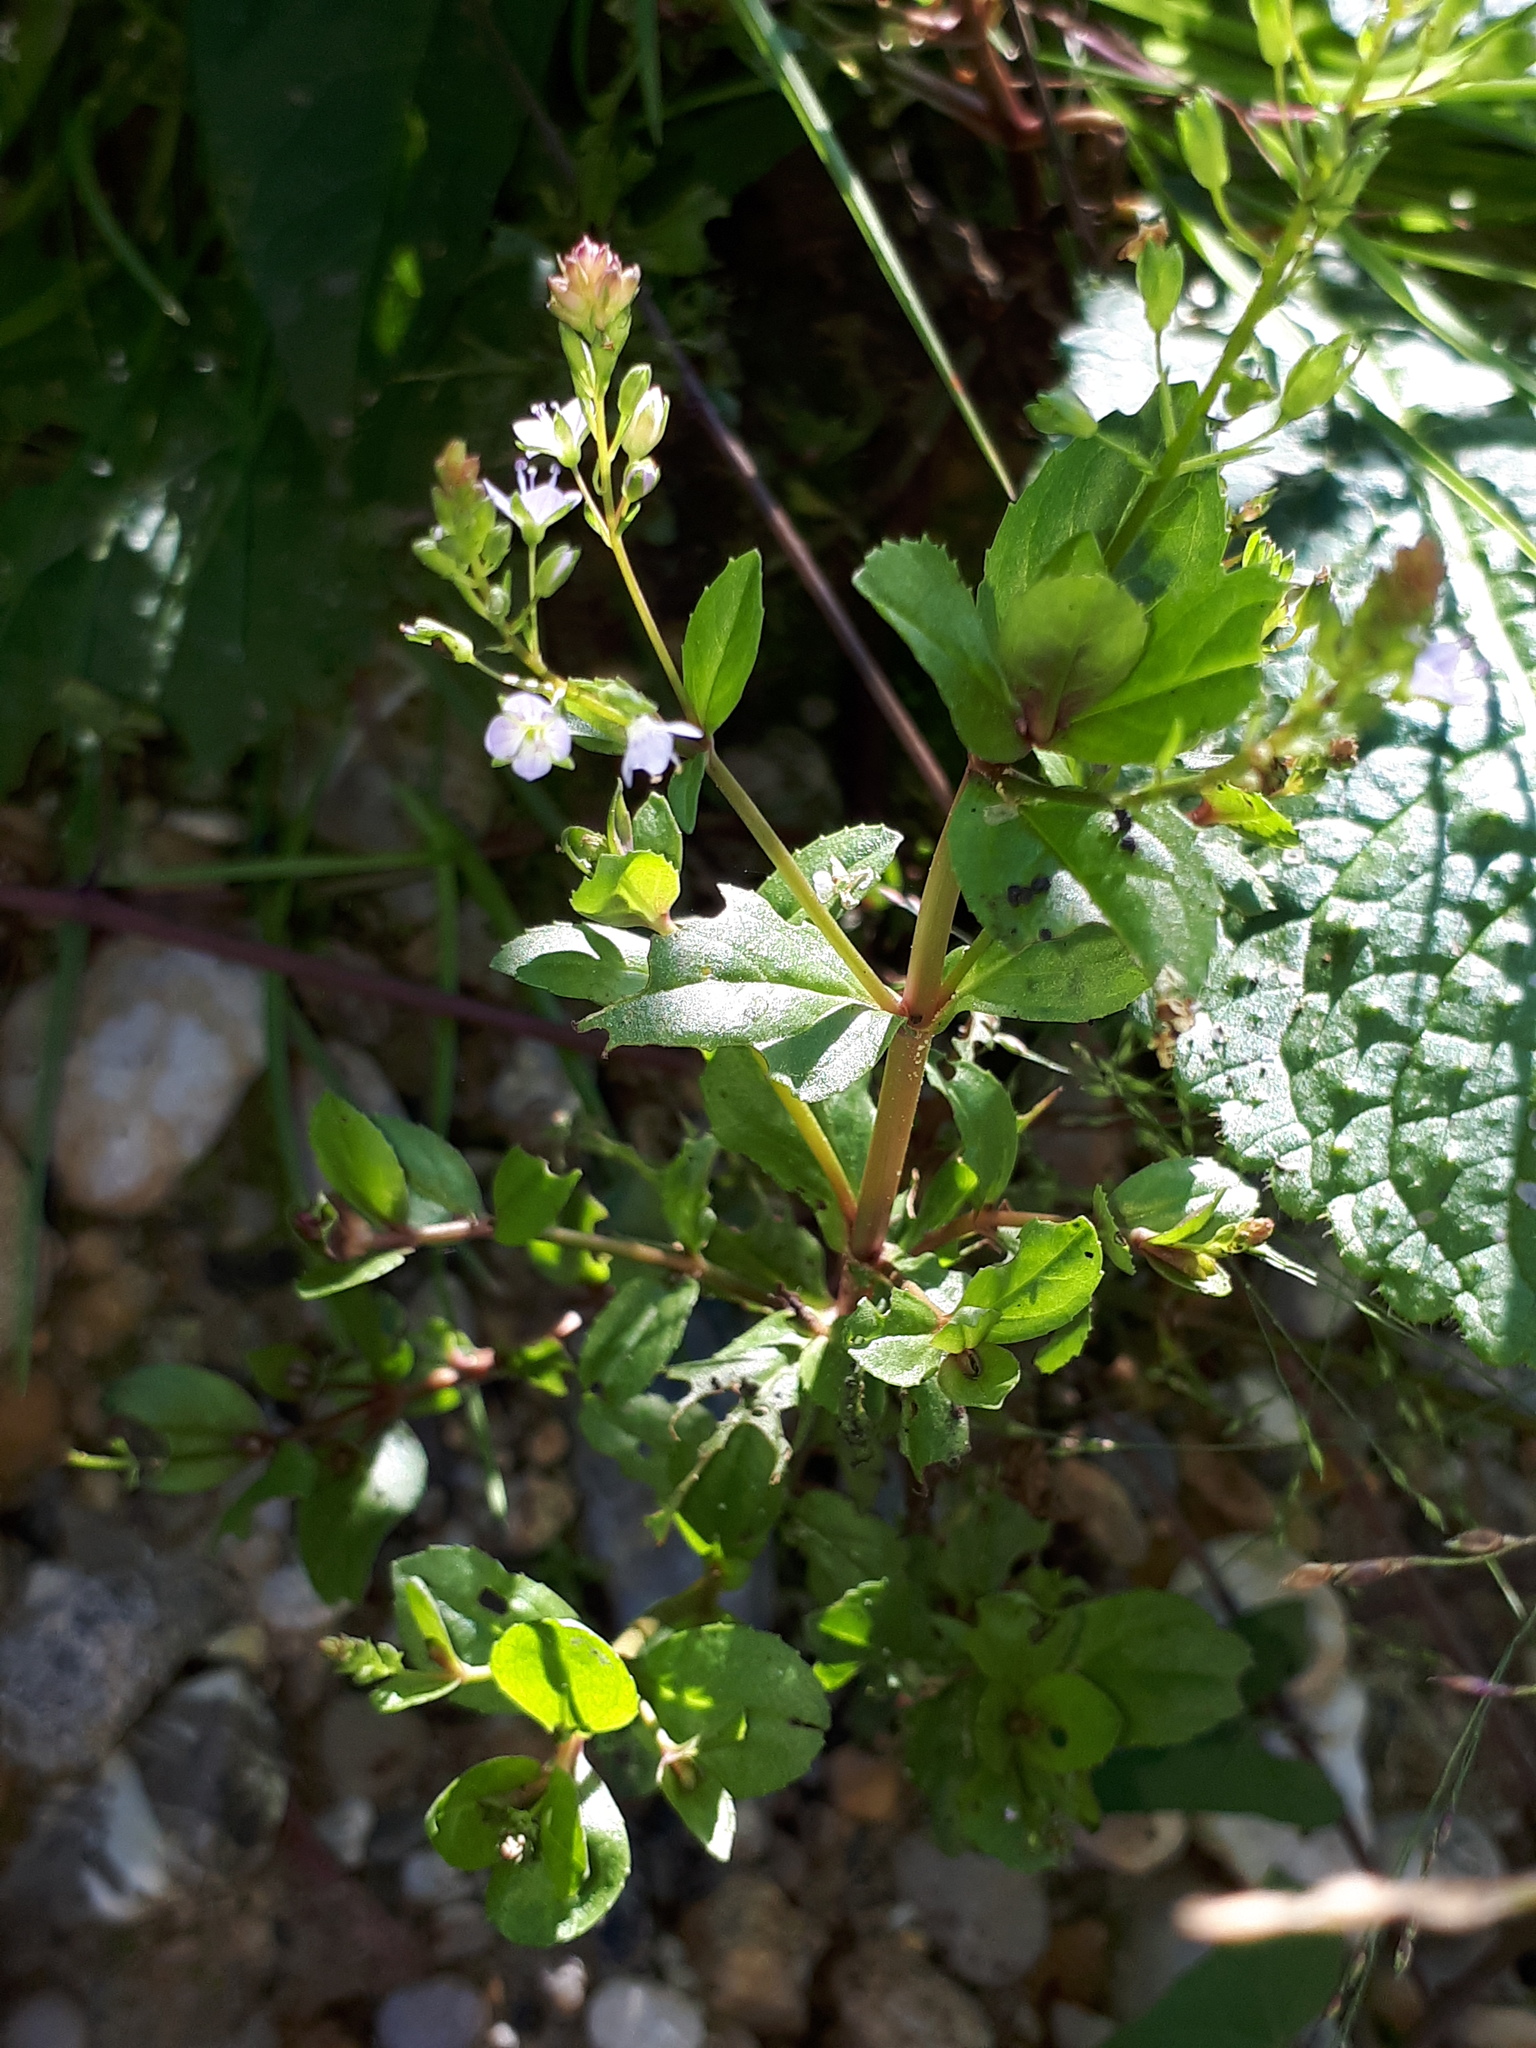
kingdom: Plantae
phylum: Tracheophyta
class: Magnoliopsida
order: Lamiales
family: Plantaginaceae
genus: Veronica
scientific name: Veronica anagallis-aquatica
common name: Water speedwell
